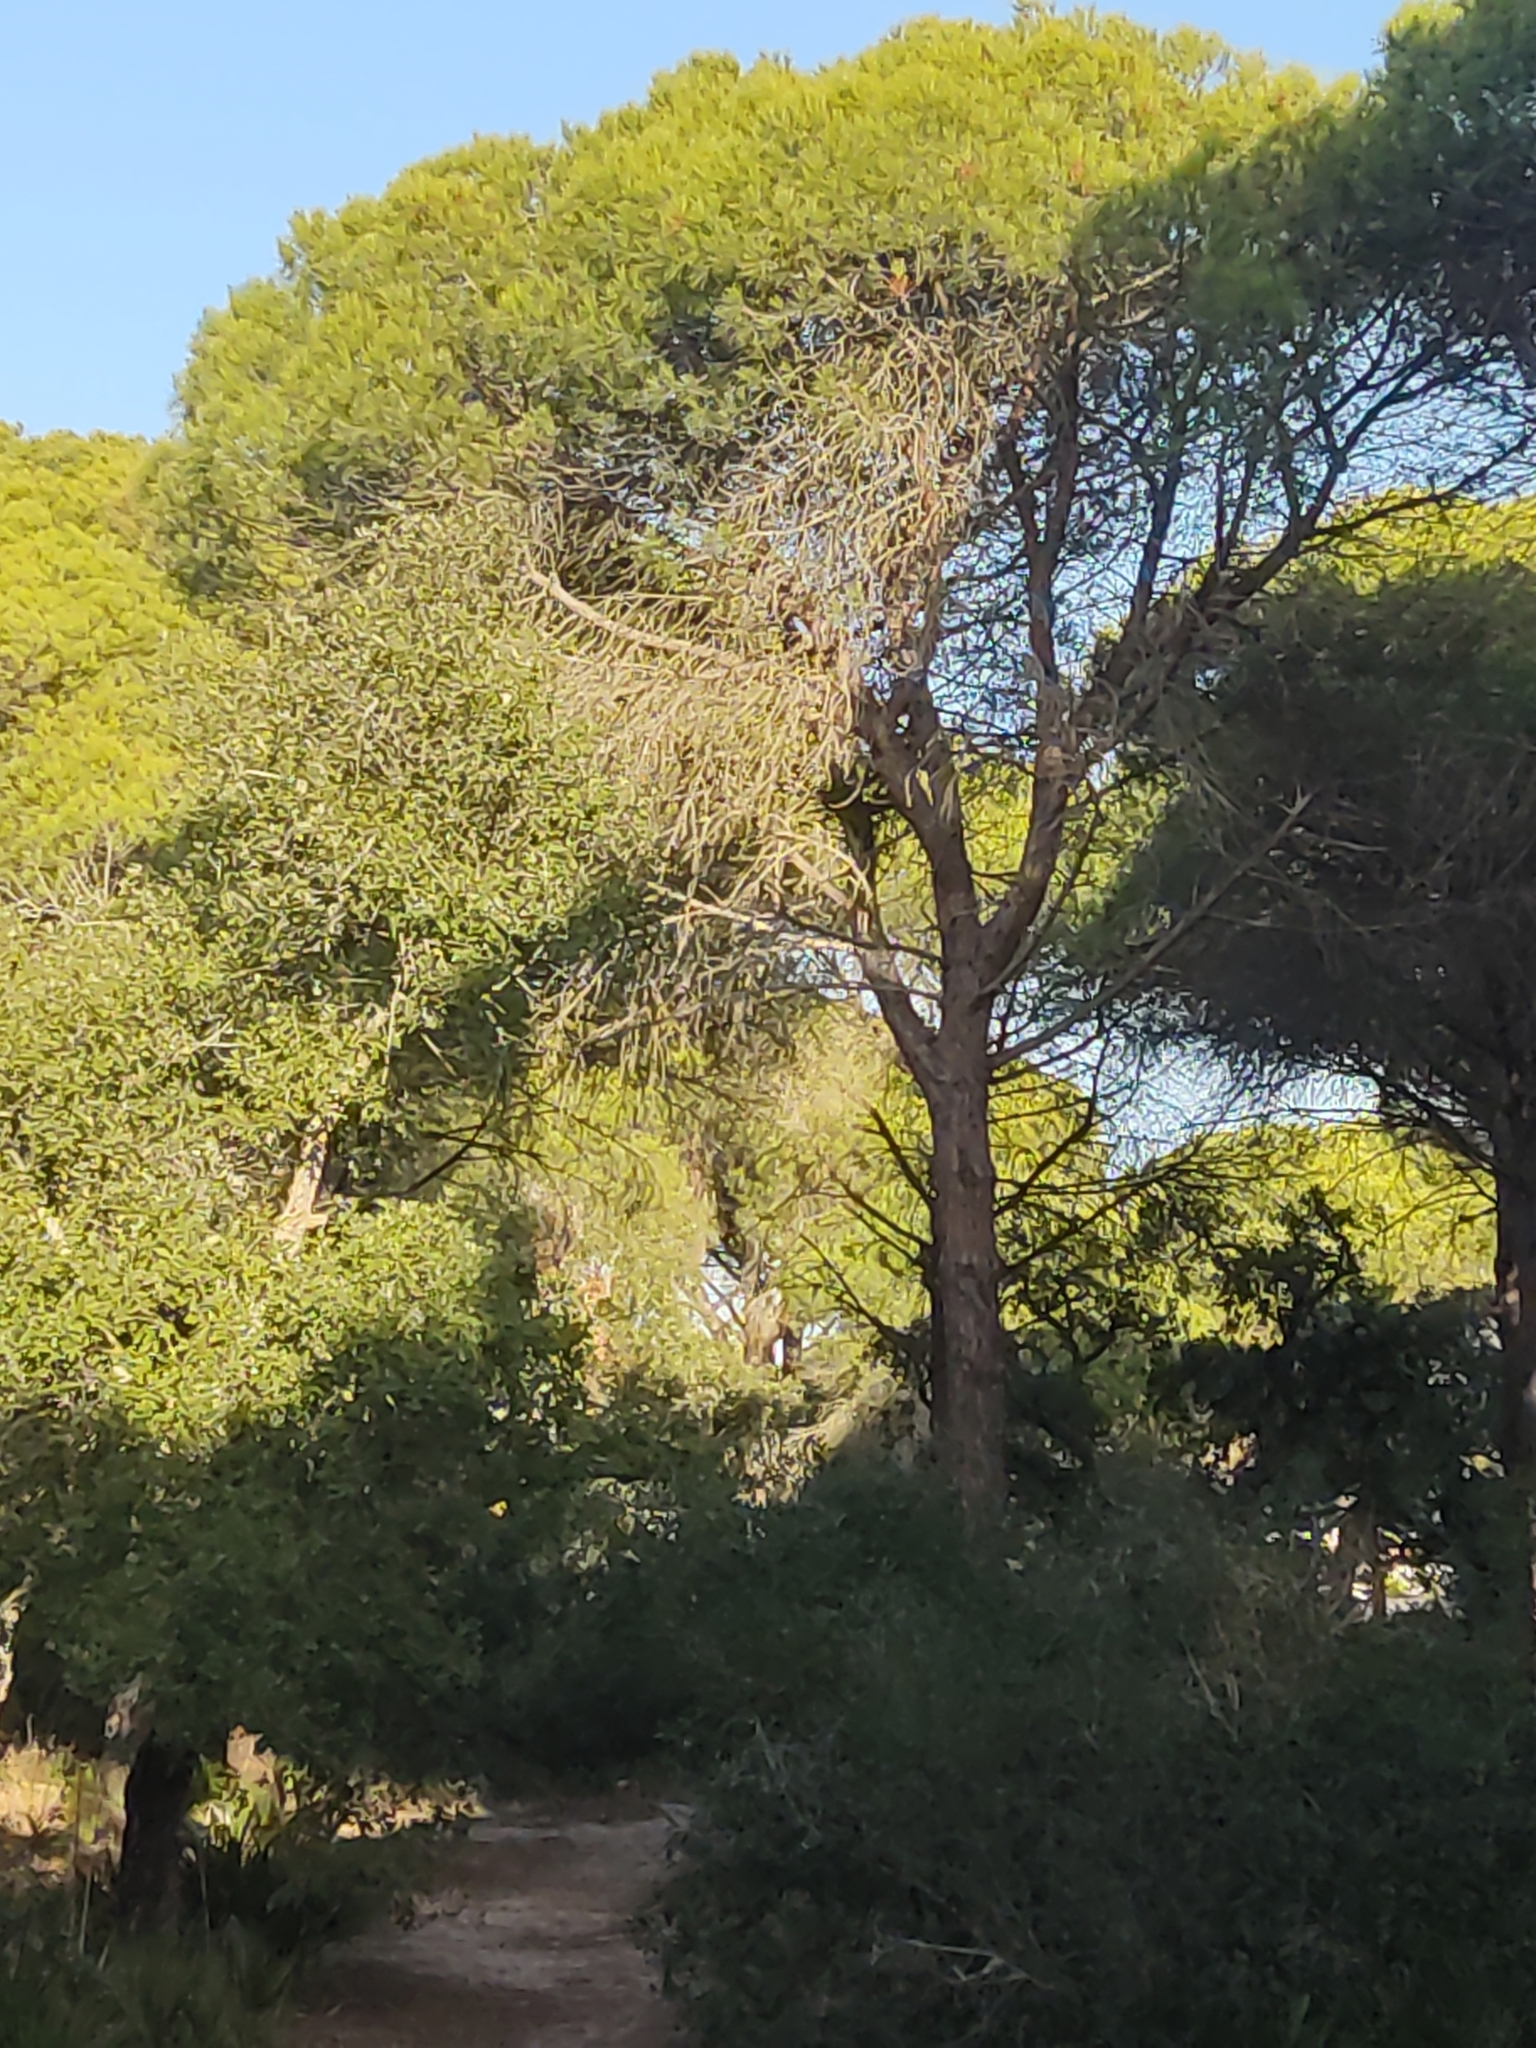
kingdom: Plantae
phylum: Tracheophyta
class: Pinopsida
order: Pinales
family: Pinaceae
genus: Pinus
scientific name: Pinus pinea
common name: Italian stone pine
